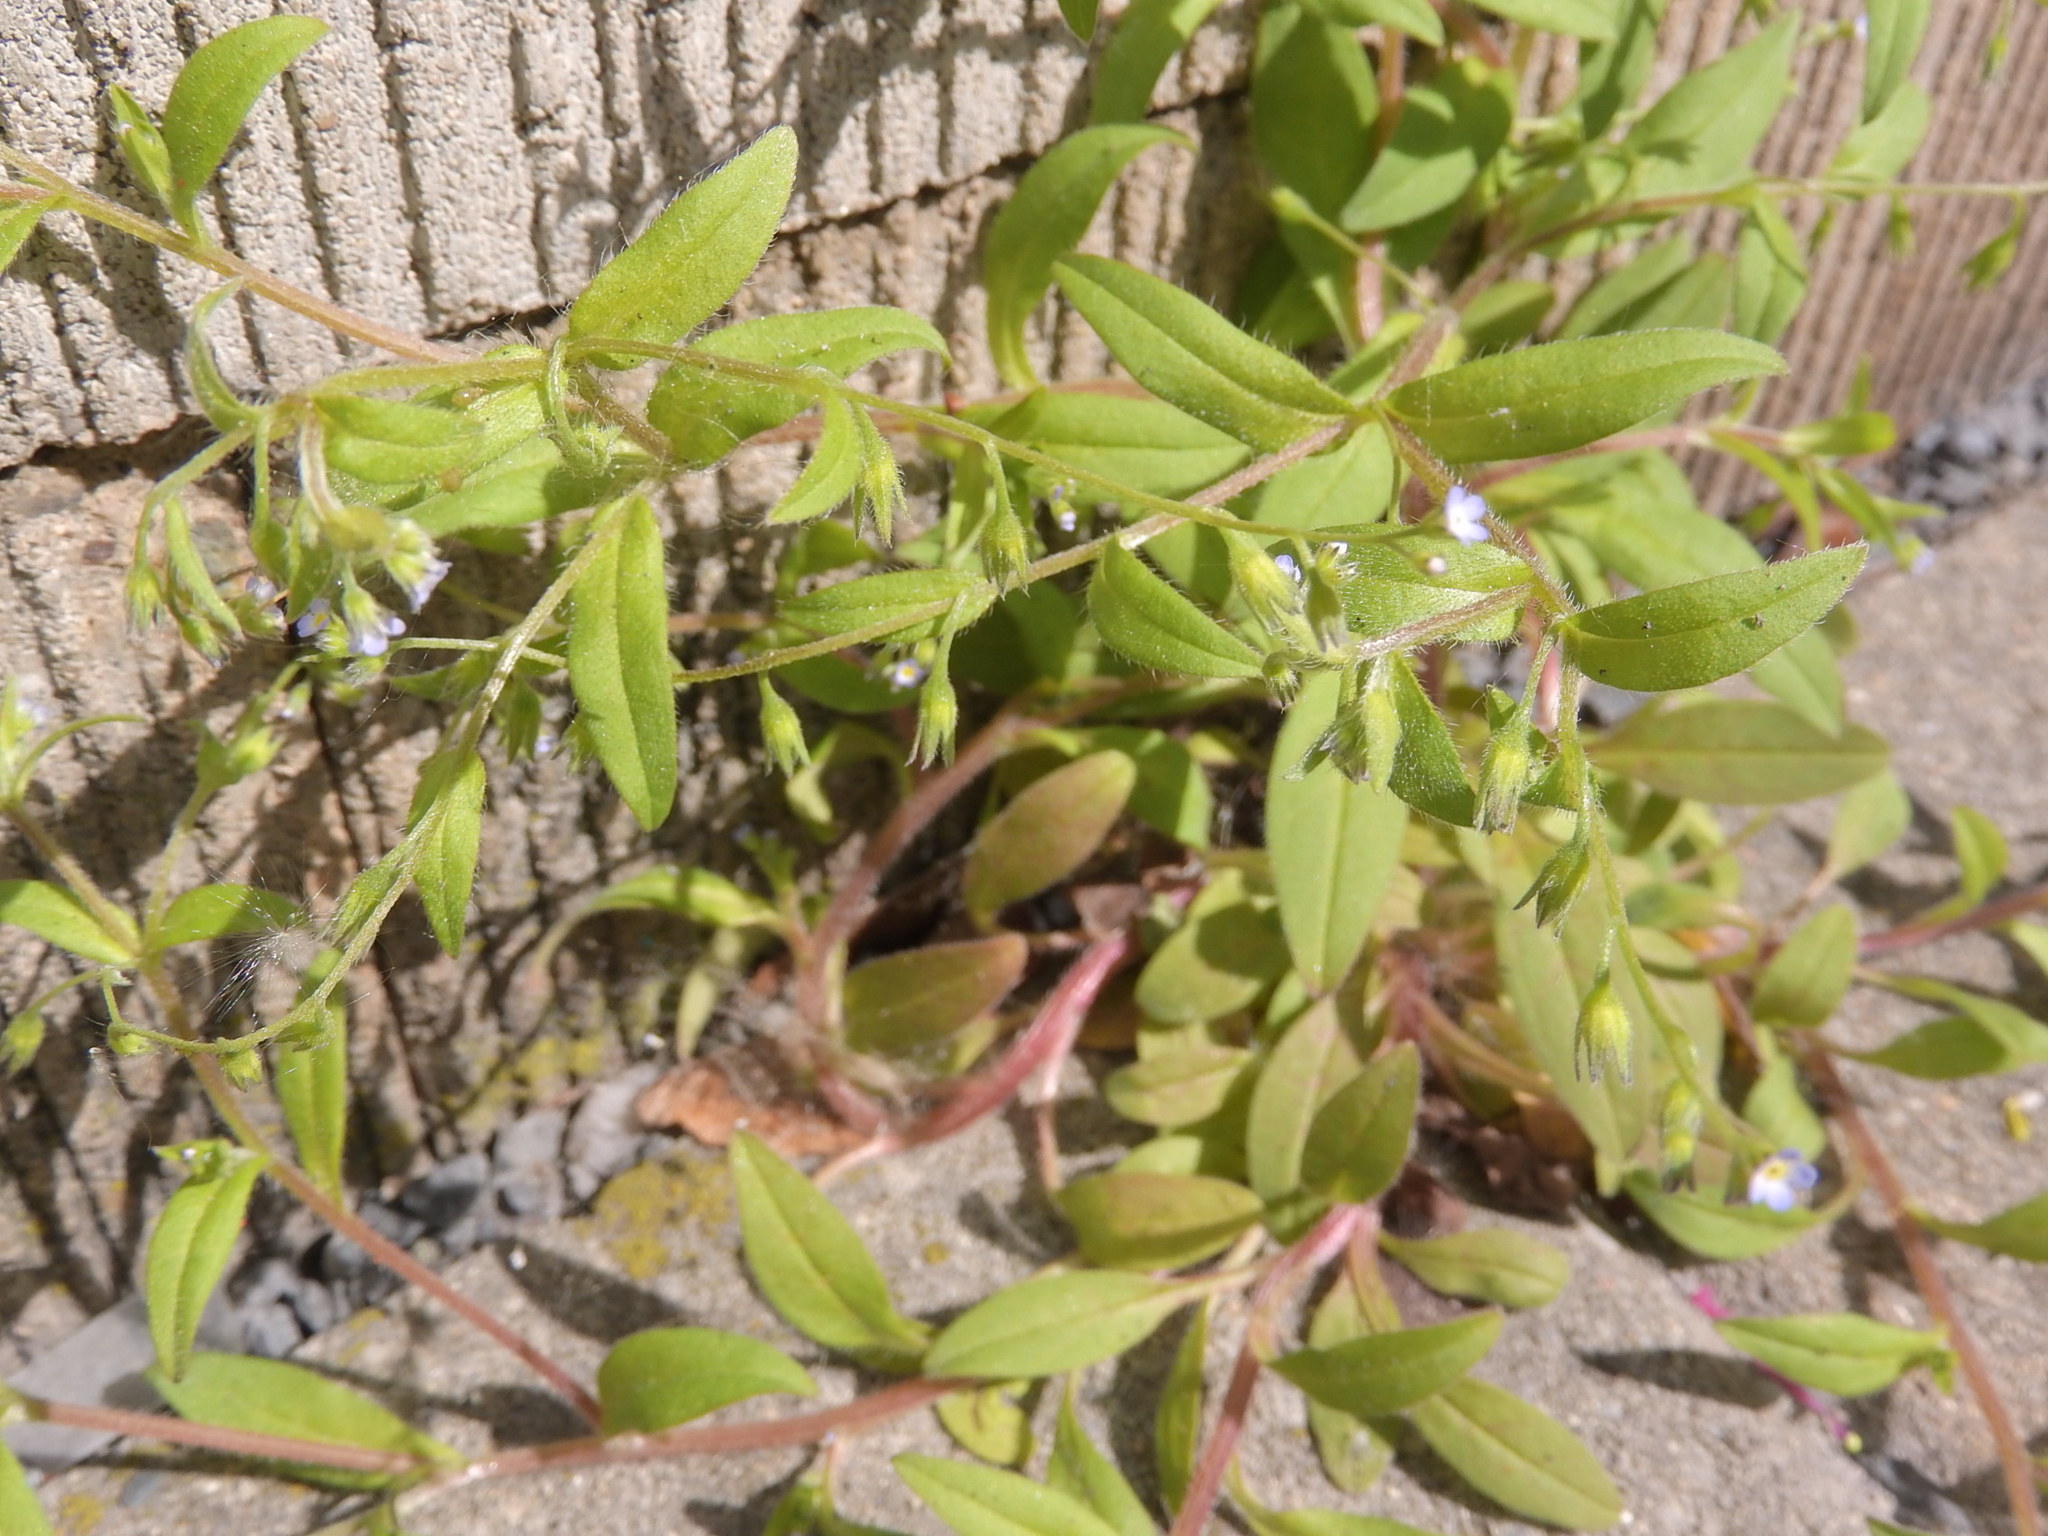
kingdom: Plantae
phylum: Tracheophyta
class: Magnoliopsida
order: Boraginales
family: Boraginaceae
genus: Myosotis
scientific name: Myosotis sparsiflora
